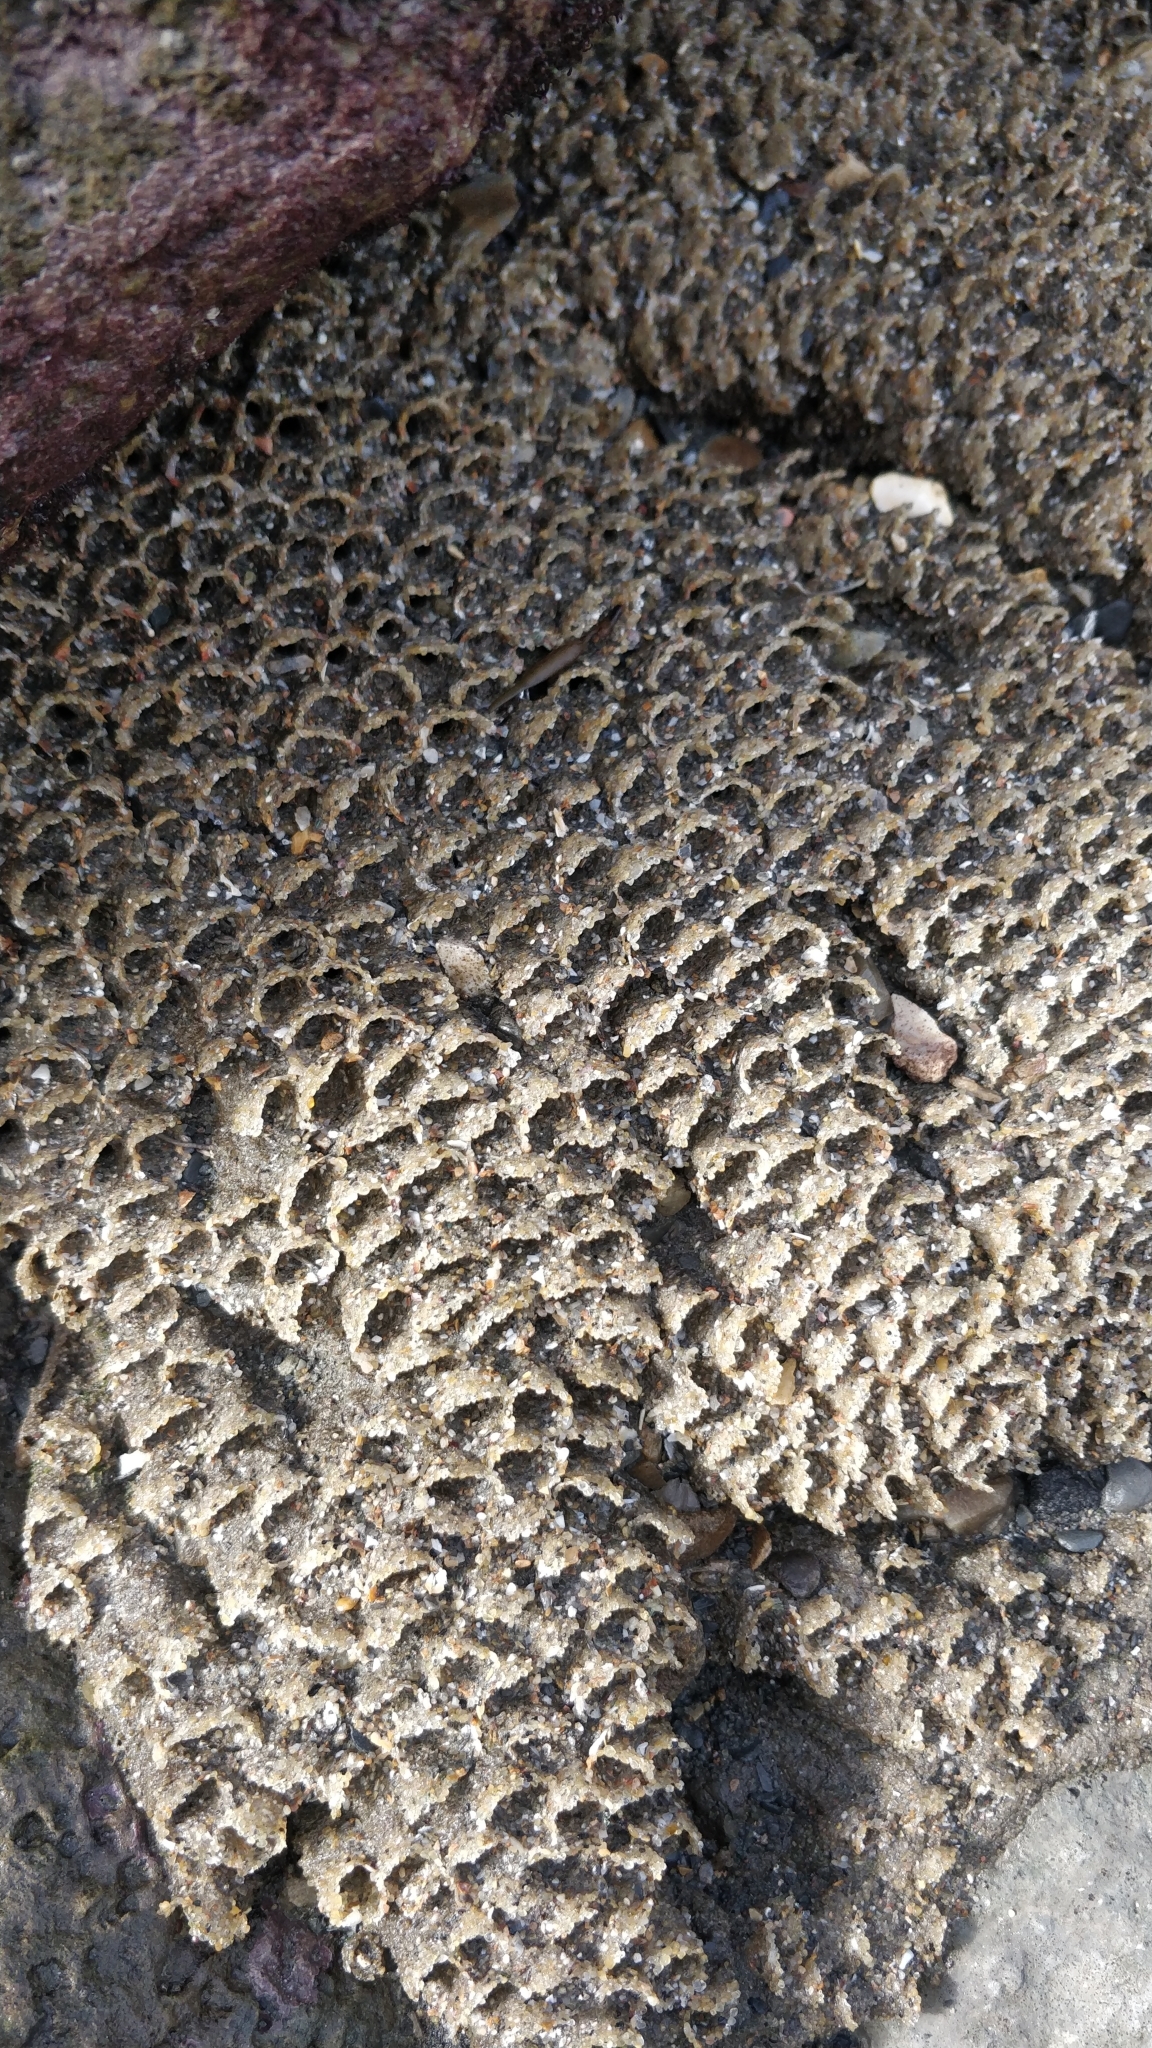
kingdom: Animalia
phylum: Annelida
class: Polychaeta
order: Sabellida
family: Sabellariidae
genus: Sabellaria
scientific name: Sabellaria alveolata
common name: Honeycomb worm
